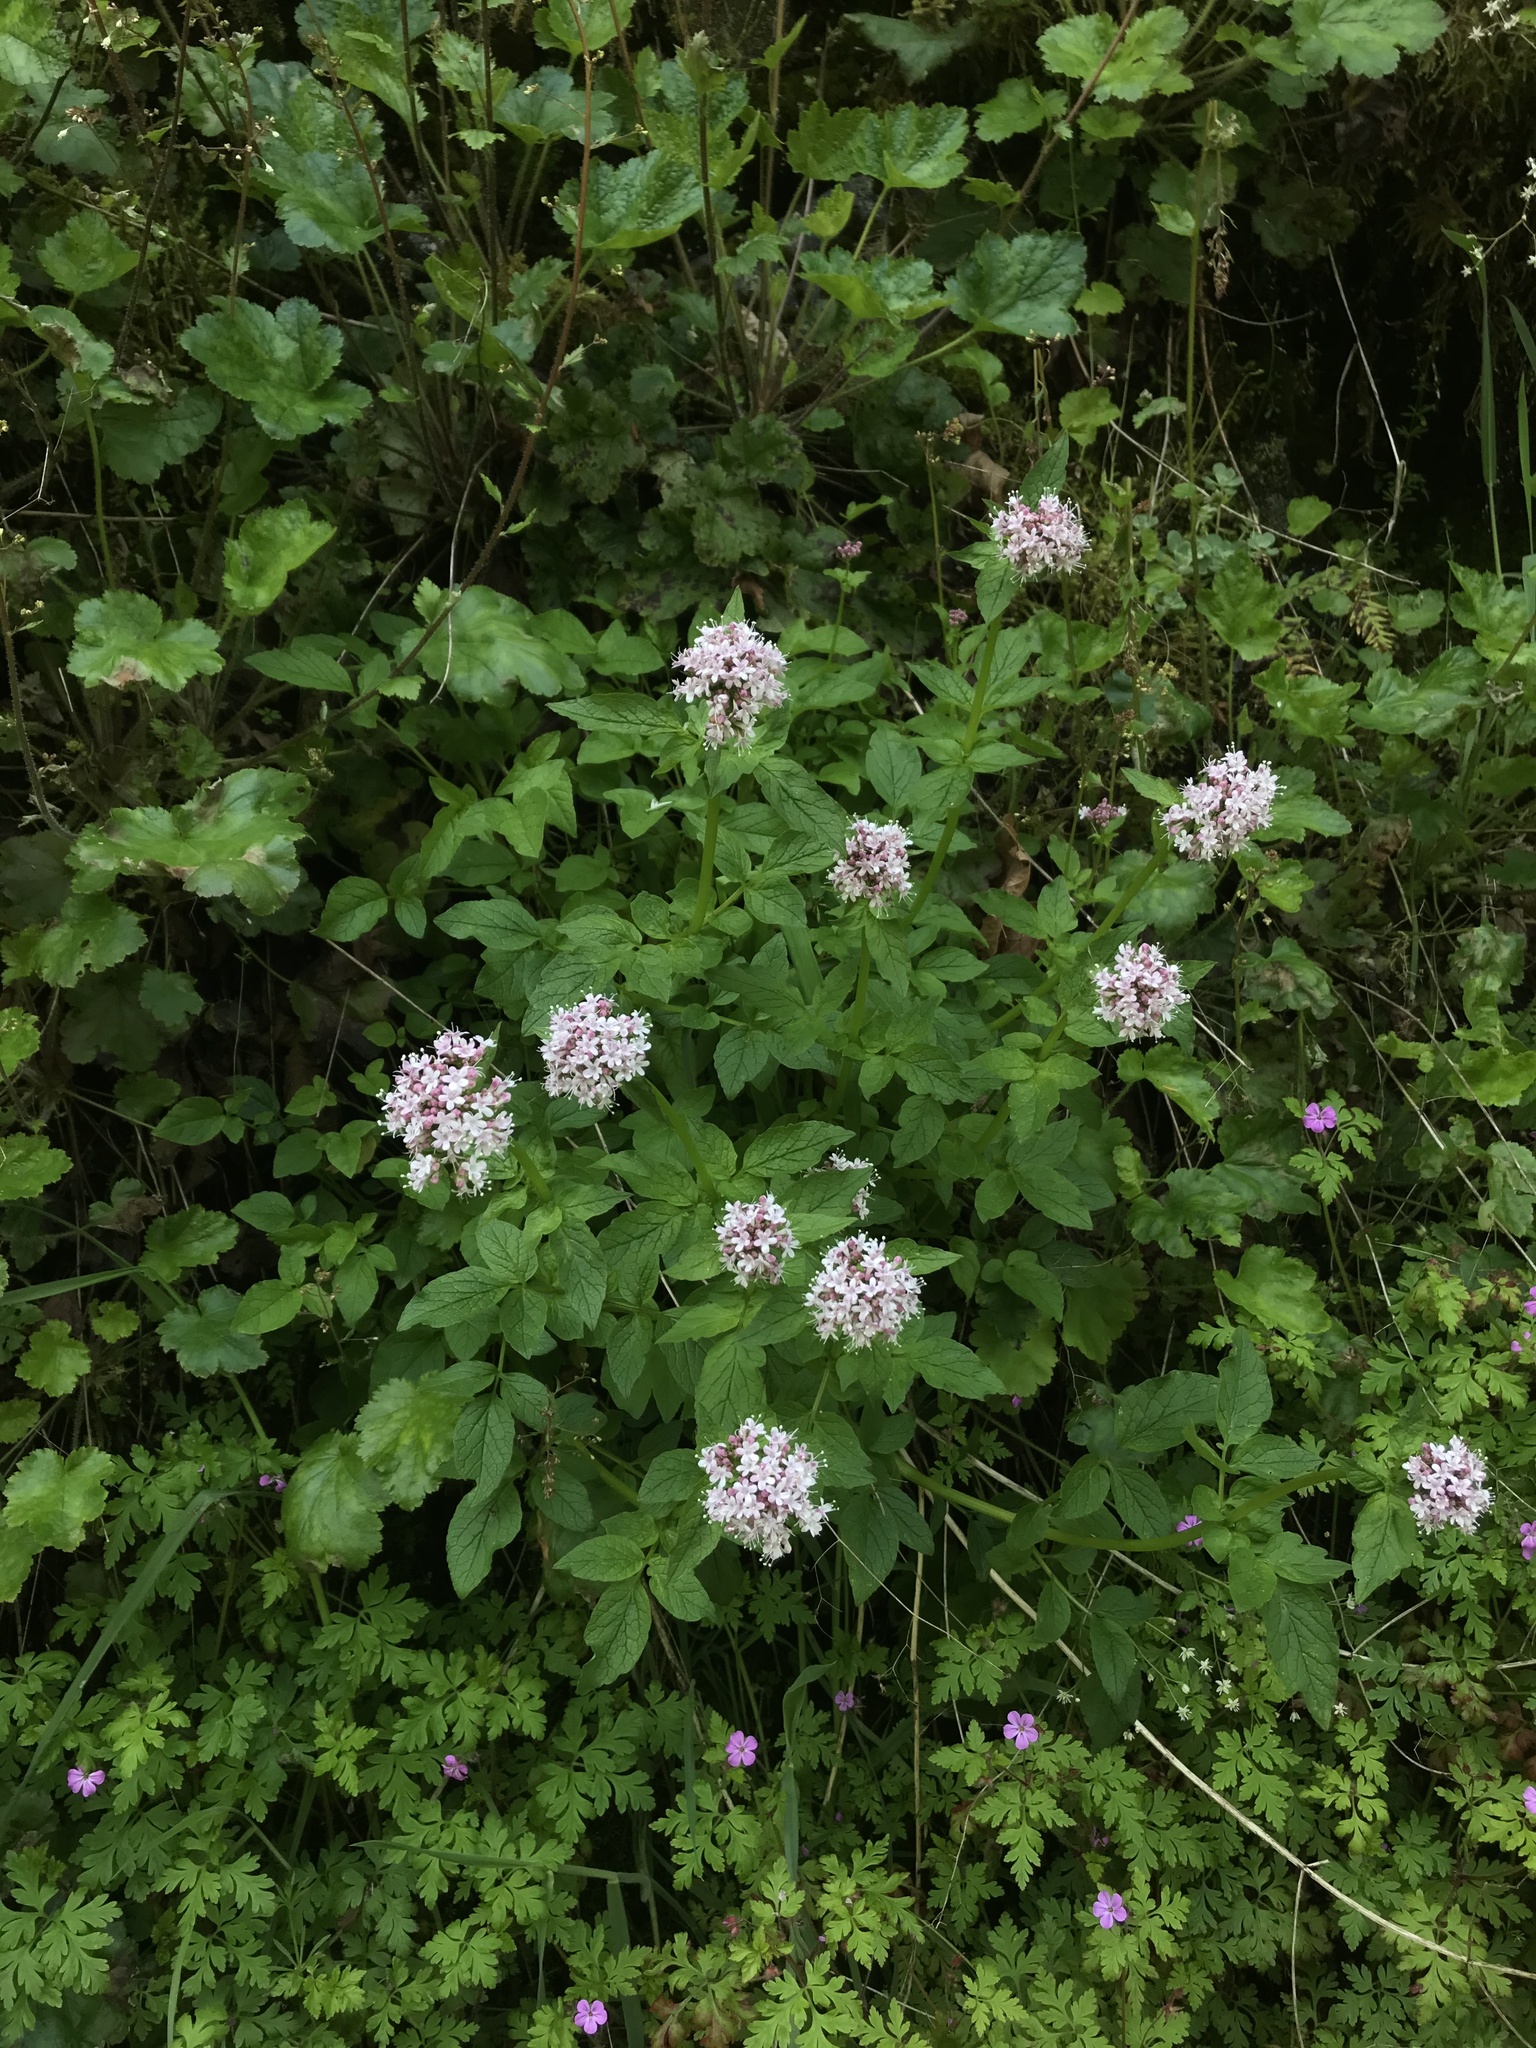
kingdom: Plantae
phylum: Tracheophyta
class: Magnoliopsida
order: Dipsacales
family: Caprifoliaceae
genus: Valeriana
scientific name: Valeriana sitchensis
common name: Pacific valerian
